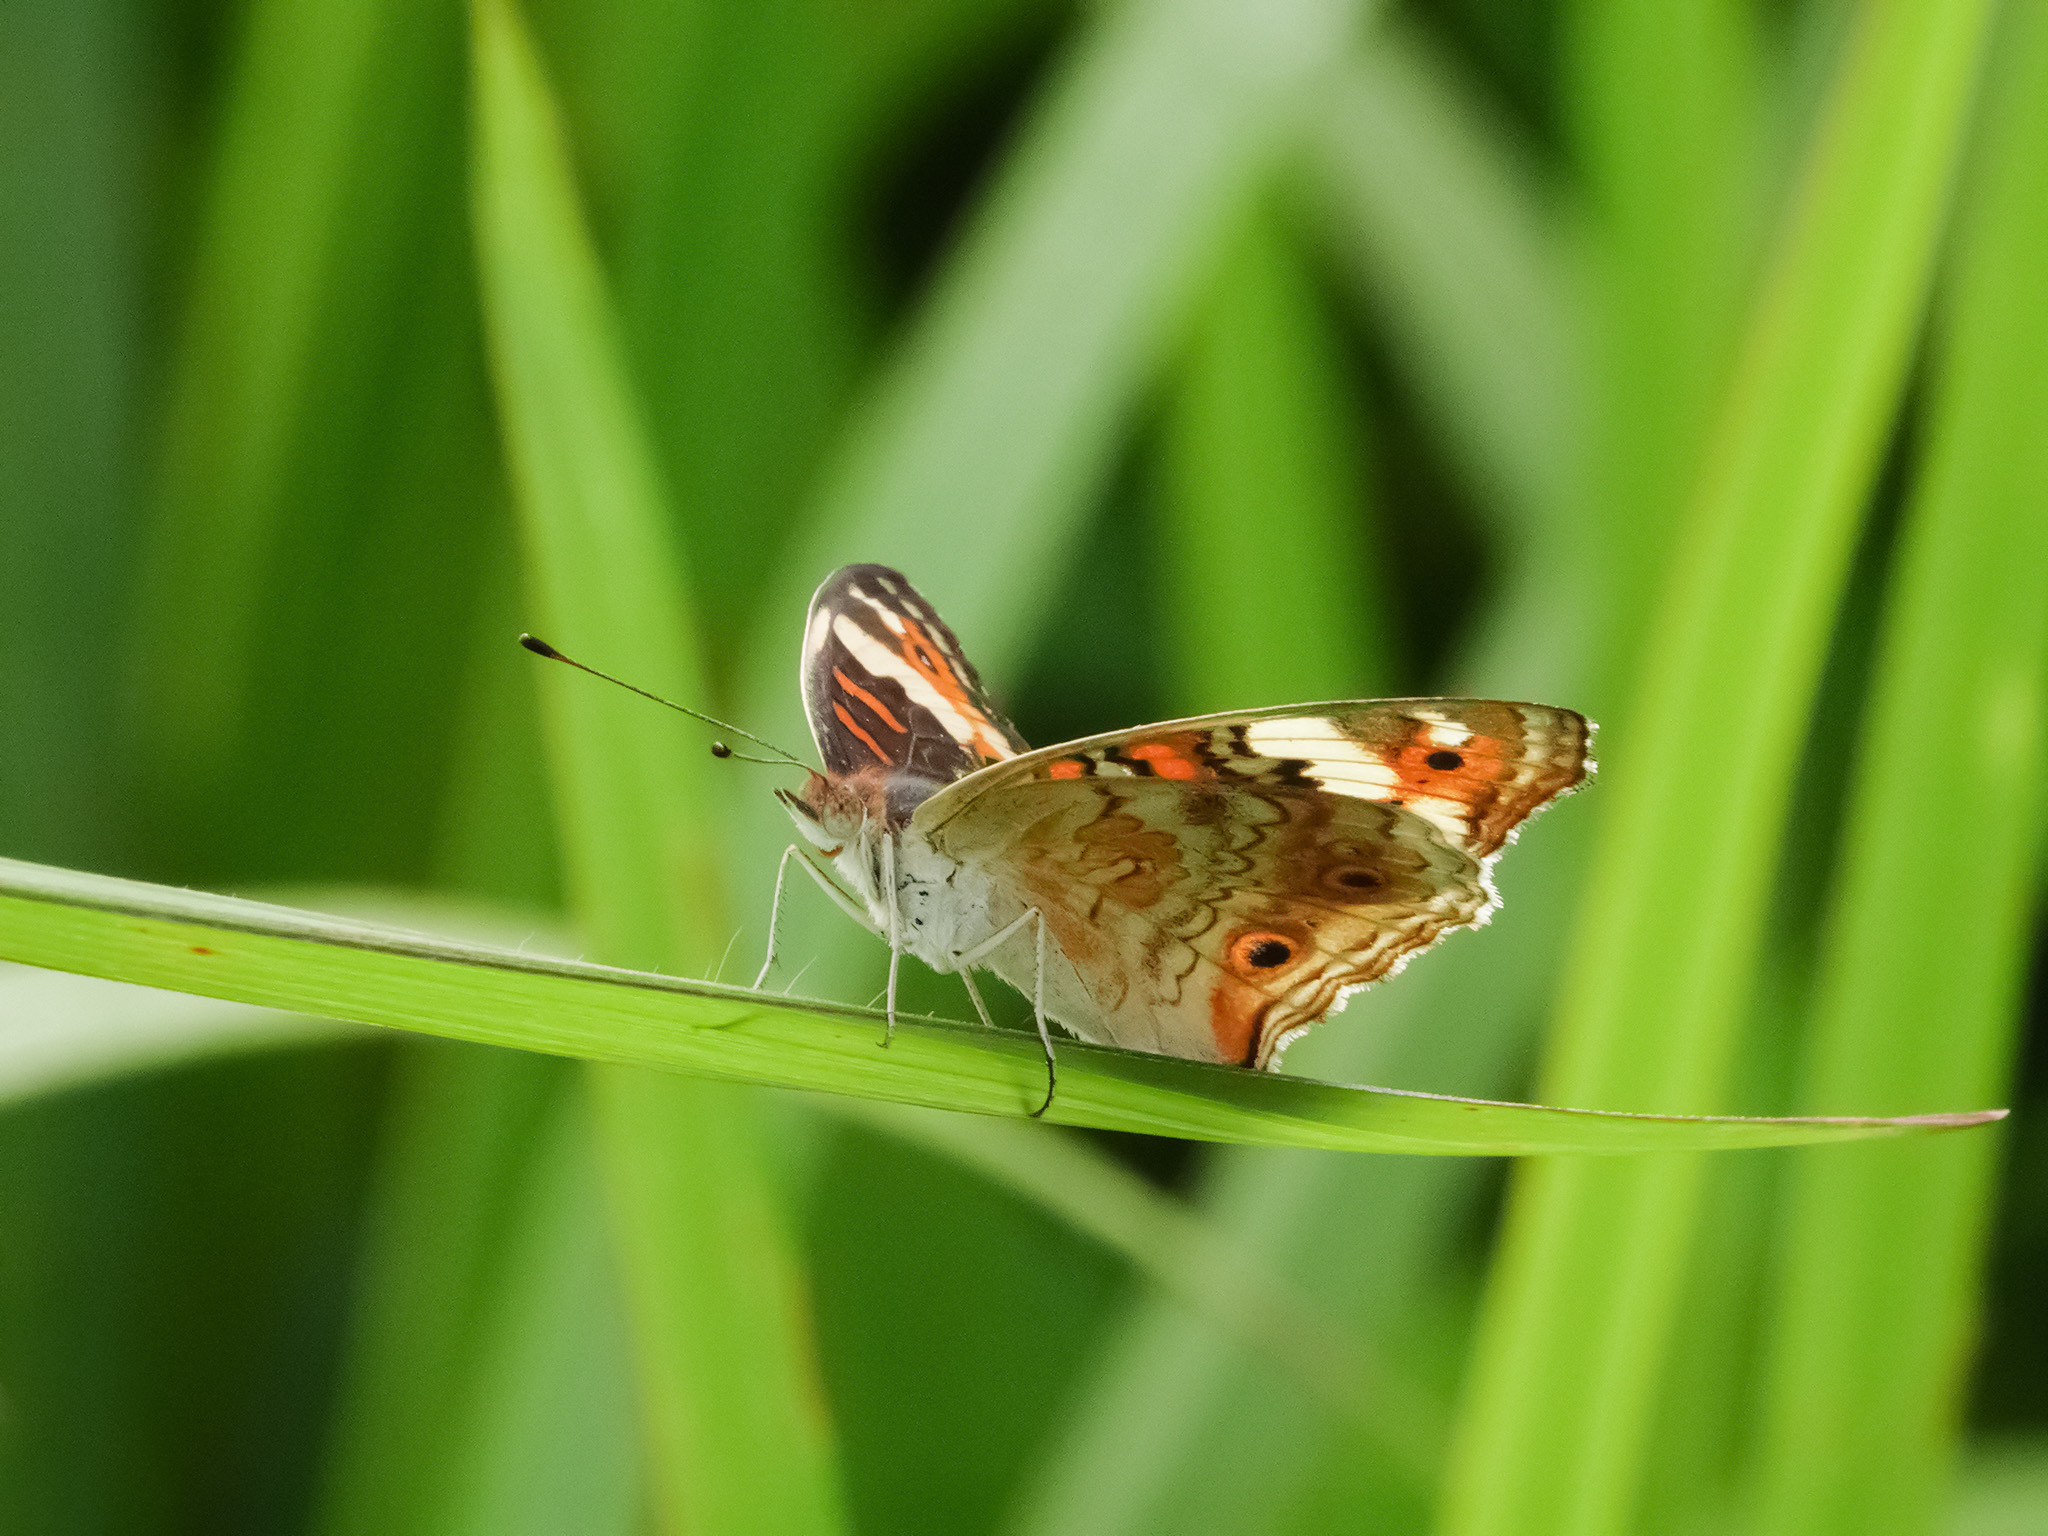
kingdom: Animalia
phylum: Arthropoda
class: Insecta
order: Lepidoptera
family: Nymphalidae
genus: Junonia
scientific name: Junonia orithya
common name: Blue pansy
